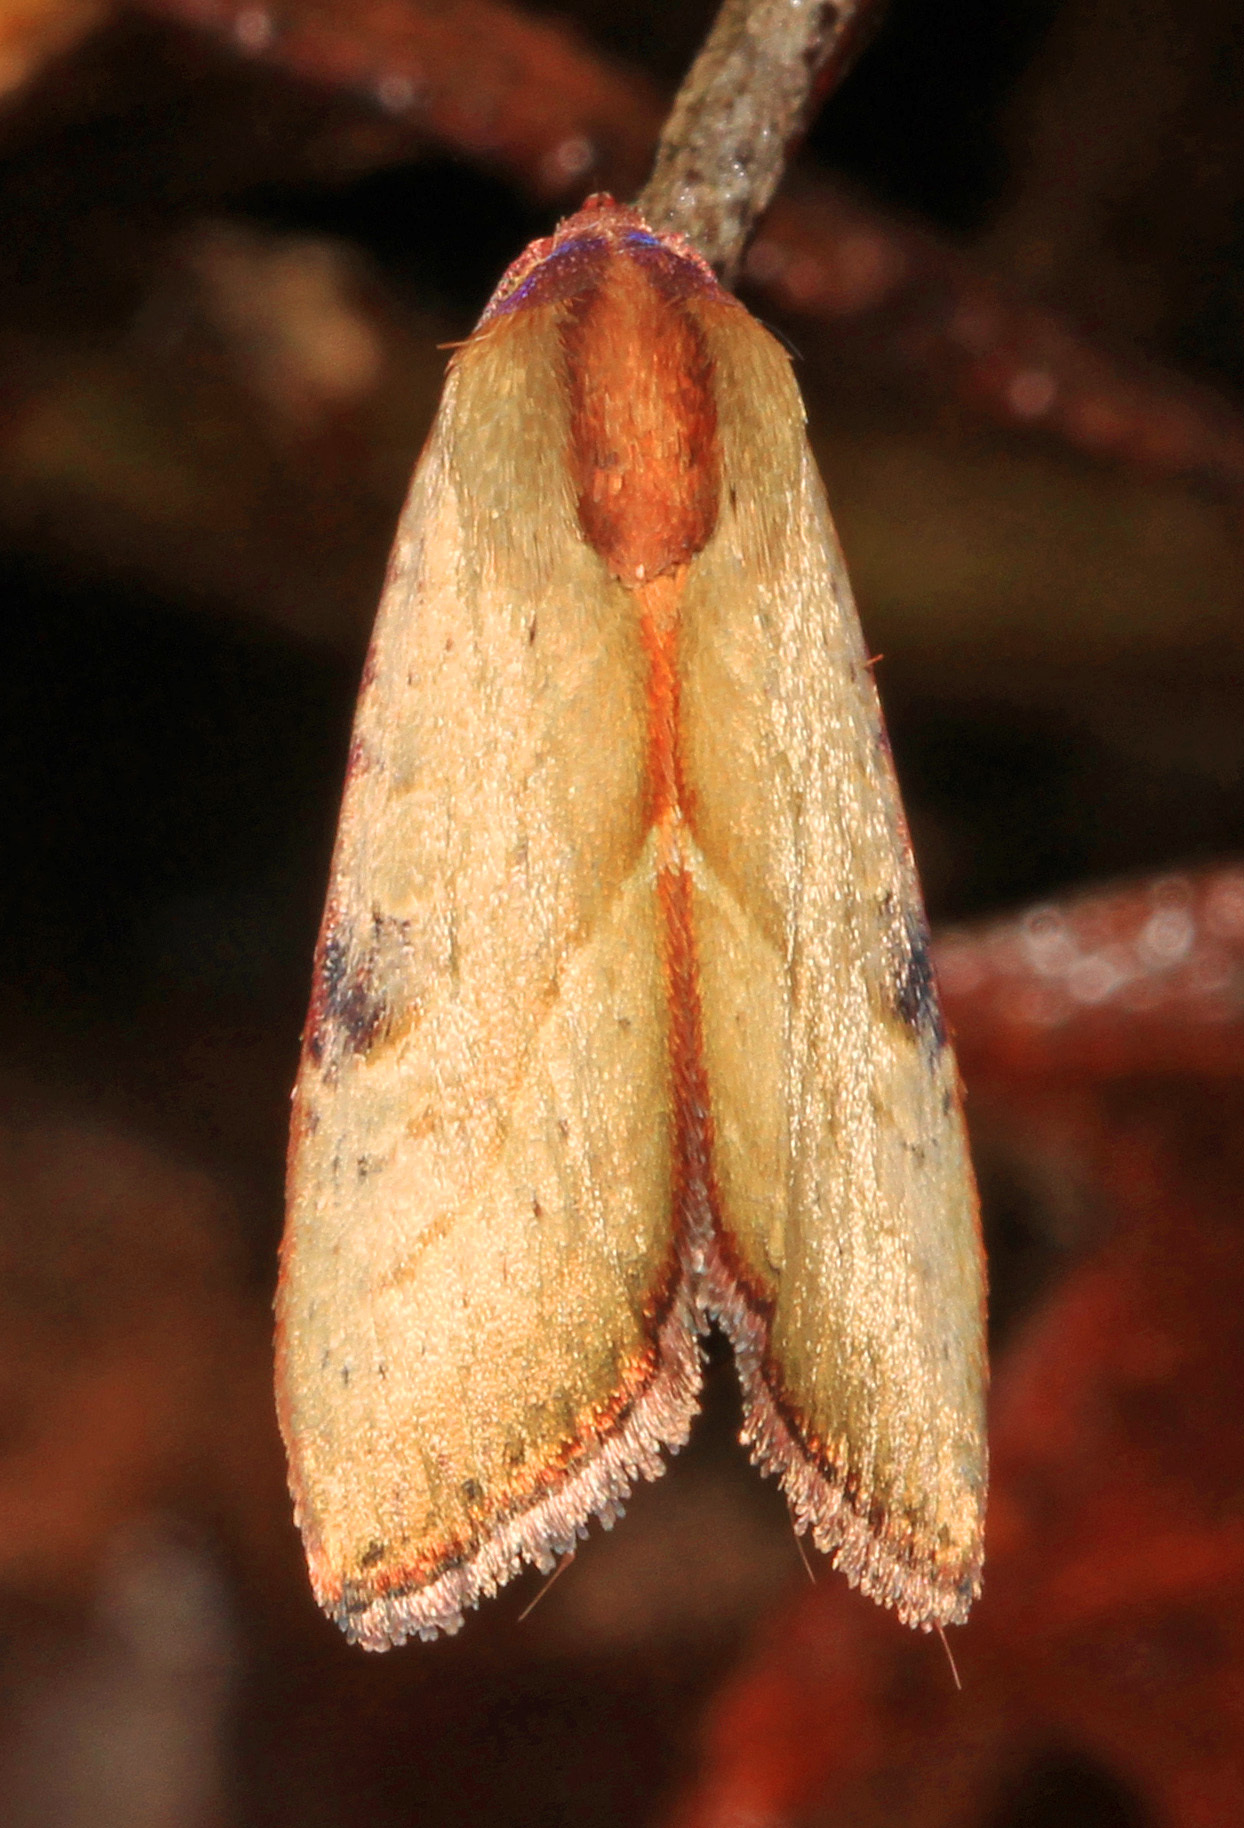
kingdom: Animalia
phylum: Arthropoda
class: Insecta
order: Lepidoptera
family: Noctuidae
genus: Galgula
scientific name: Galgula partita
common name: Wedgeling
